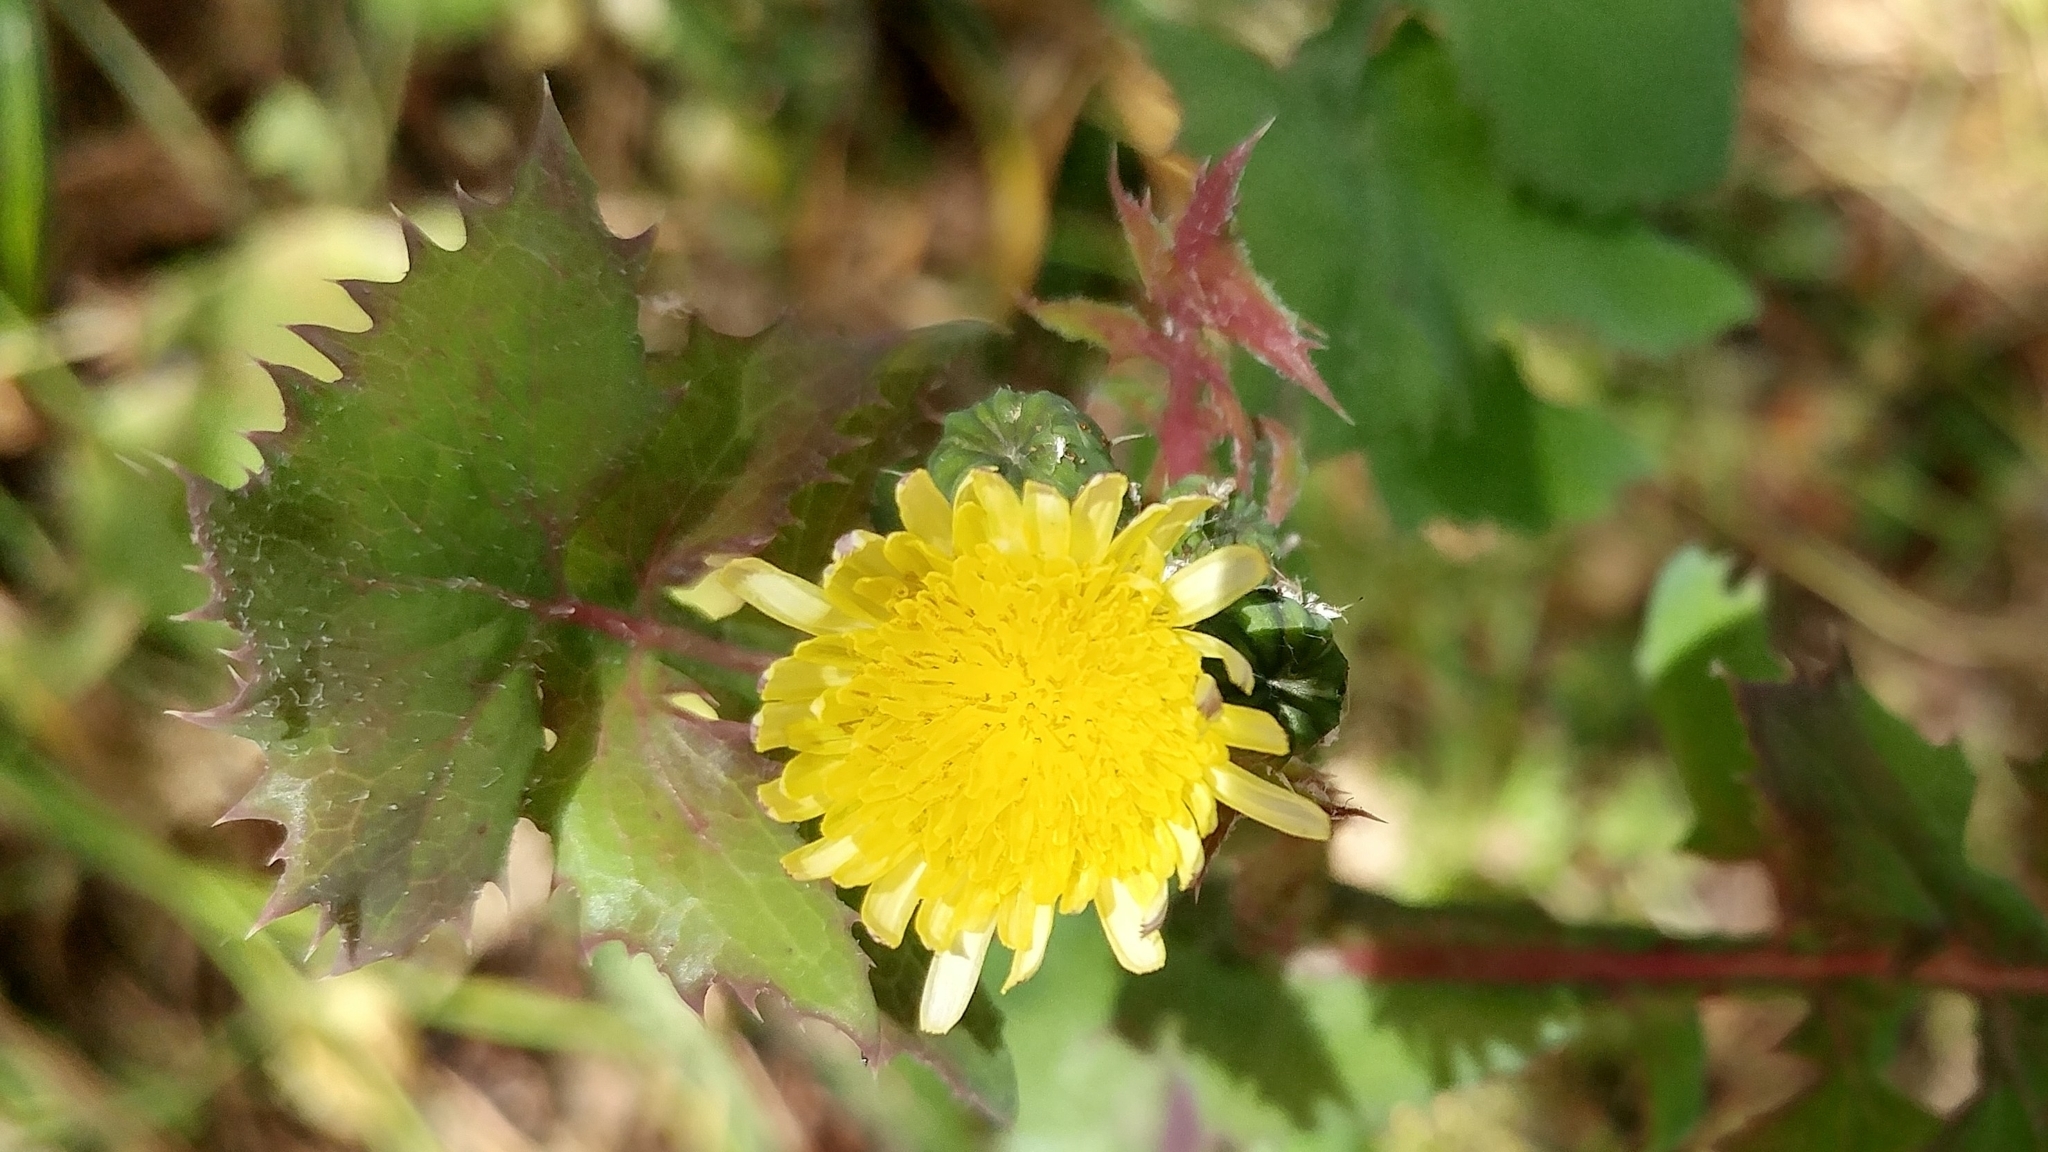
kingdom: Plantae
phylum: Tracheophyta
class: Magnoliopsida
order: Asterales
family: Asteraceae
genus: Sonchus
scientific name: Sonchus oleraceus
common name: Common sowthistle
